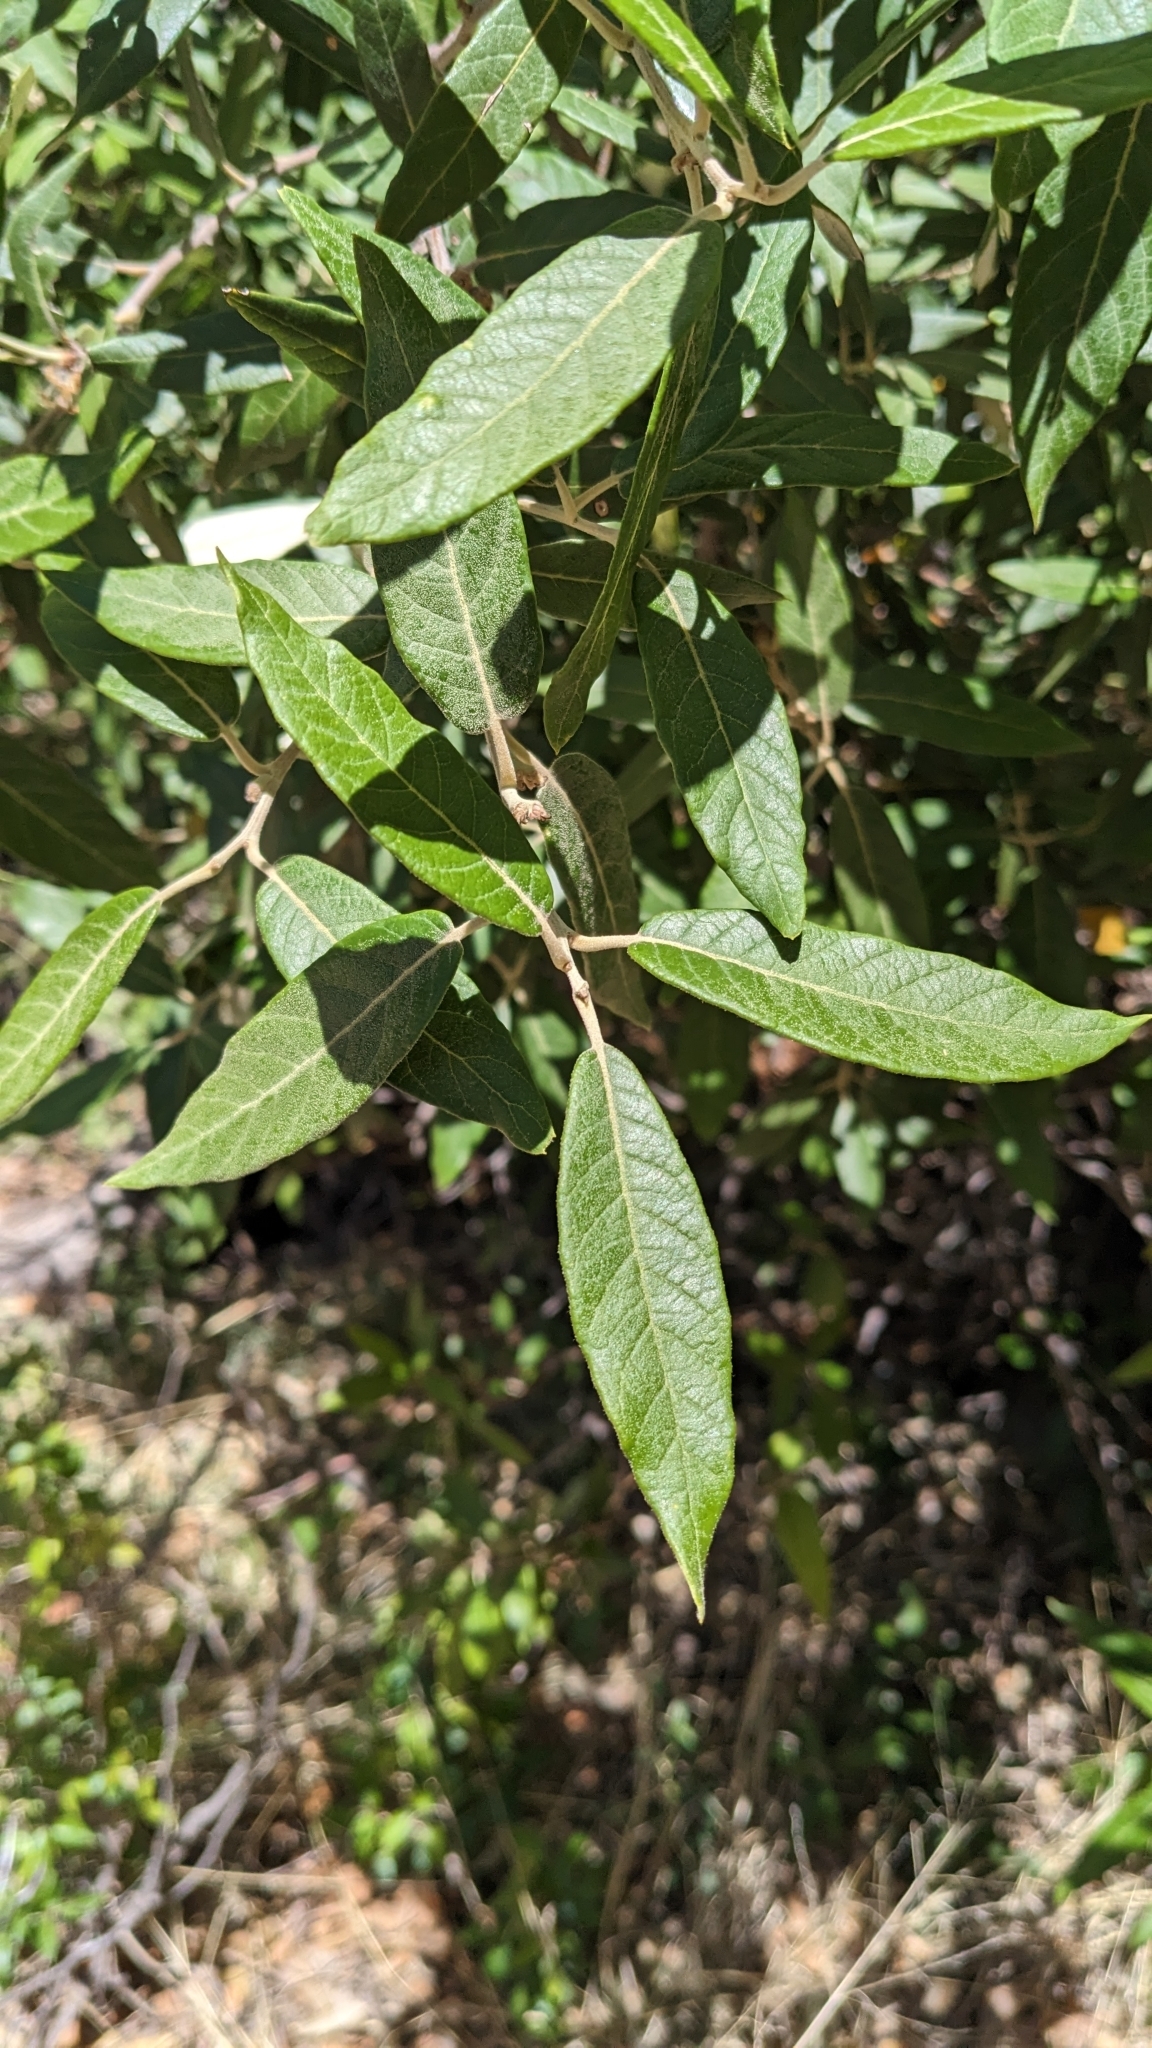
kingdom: Plantae
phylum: Tracheophyta
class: Magnoliopsida
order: Fagales
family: Fagaceae
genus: Quercus
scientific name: Quercus hypoleucoides
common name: Silverleaf oak
